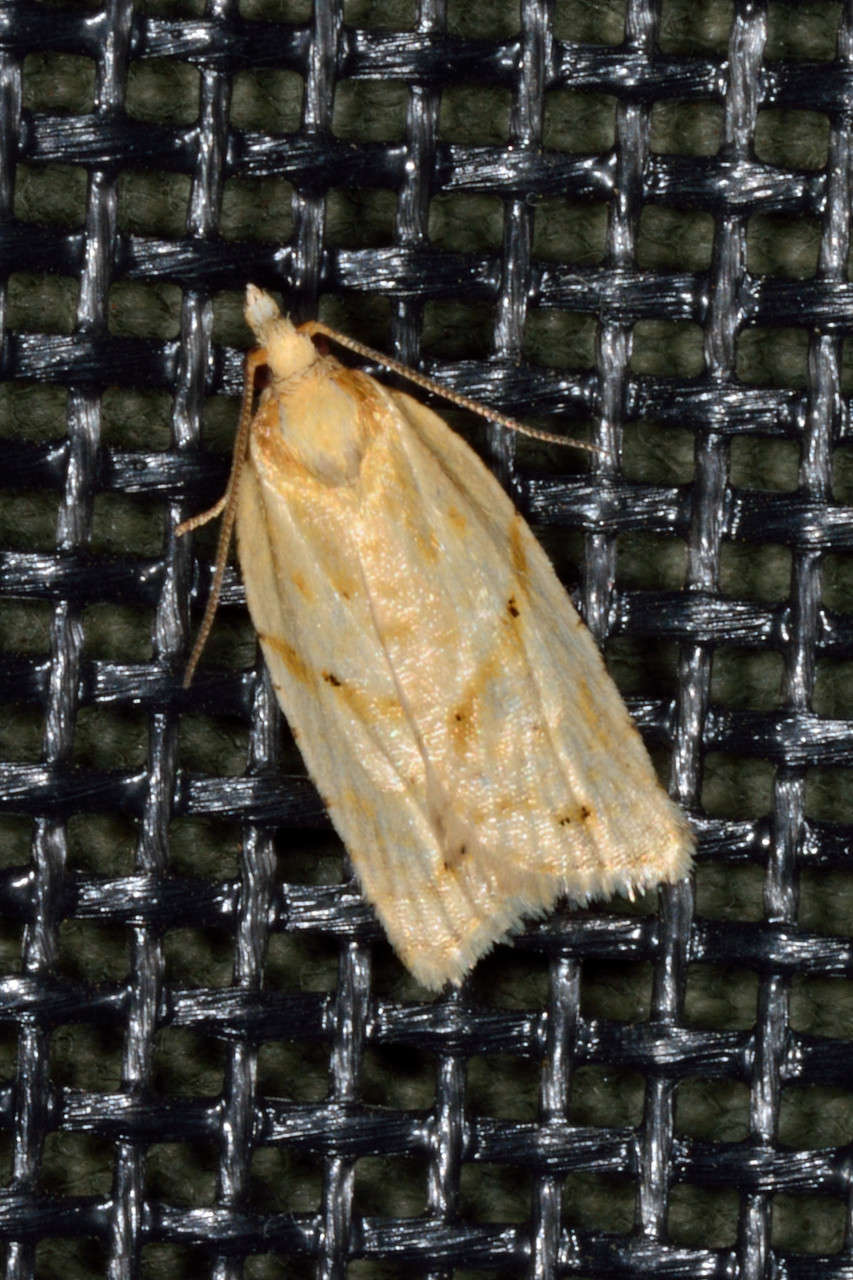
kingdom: Animalia
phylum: Arthropoda
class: Insecta
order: Lepidoptera
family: Tortricidae
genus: Clepsis
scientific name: Clepsis
